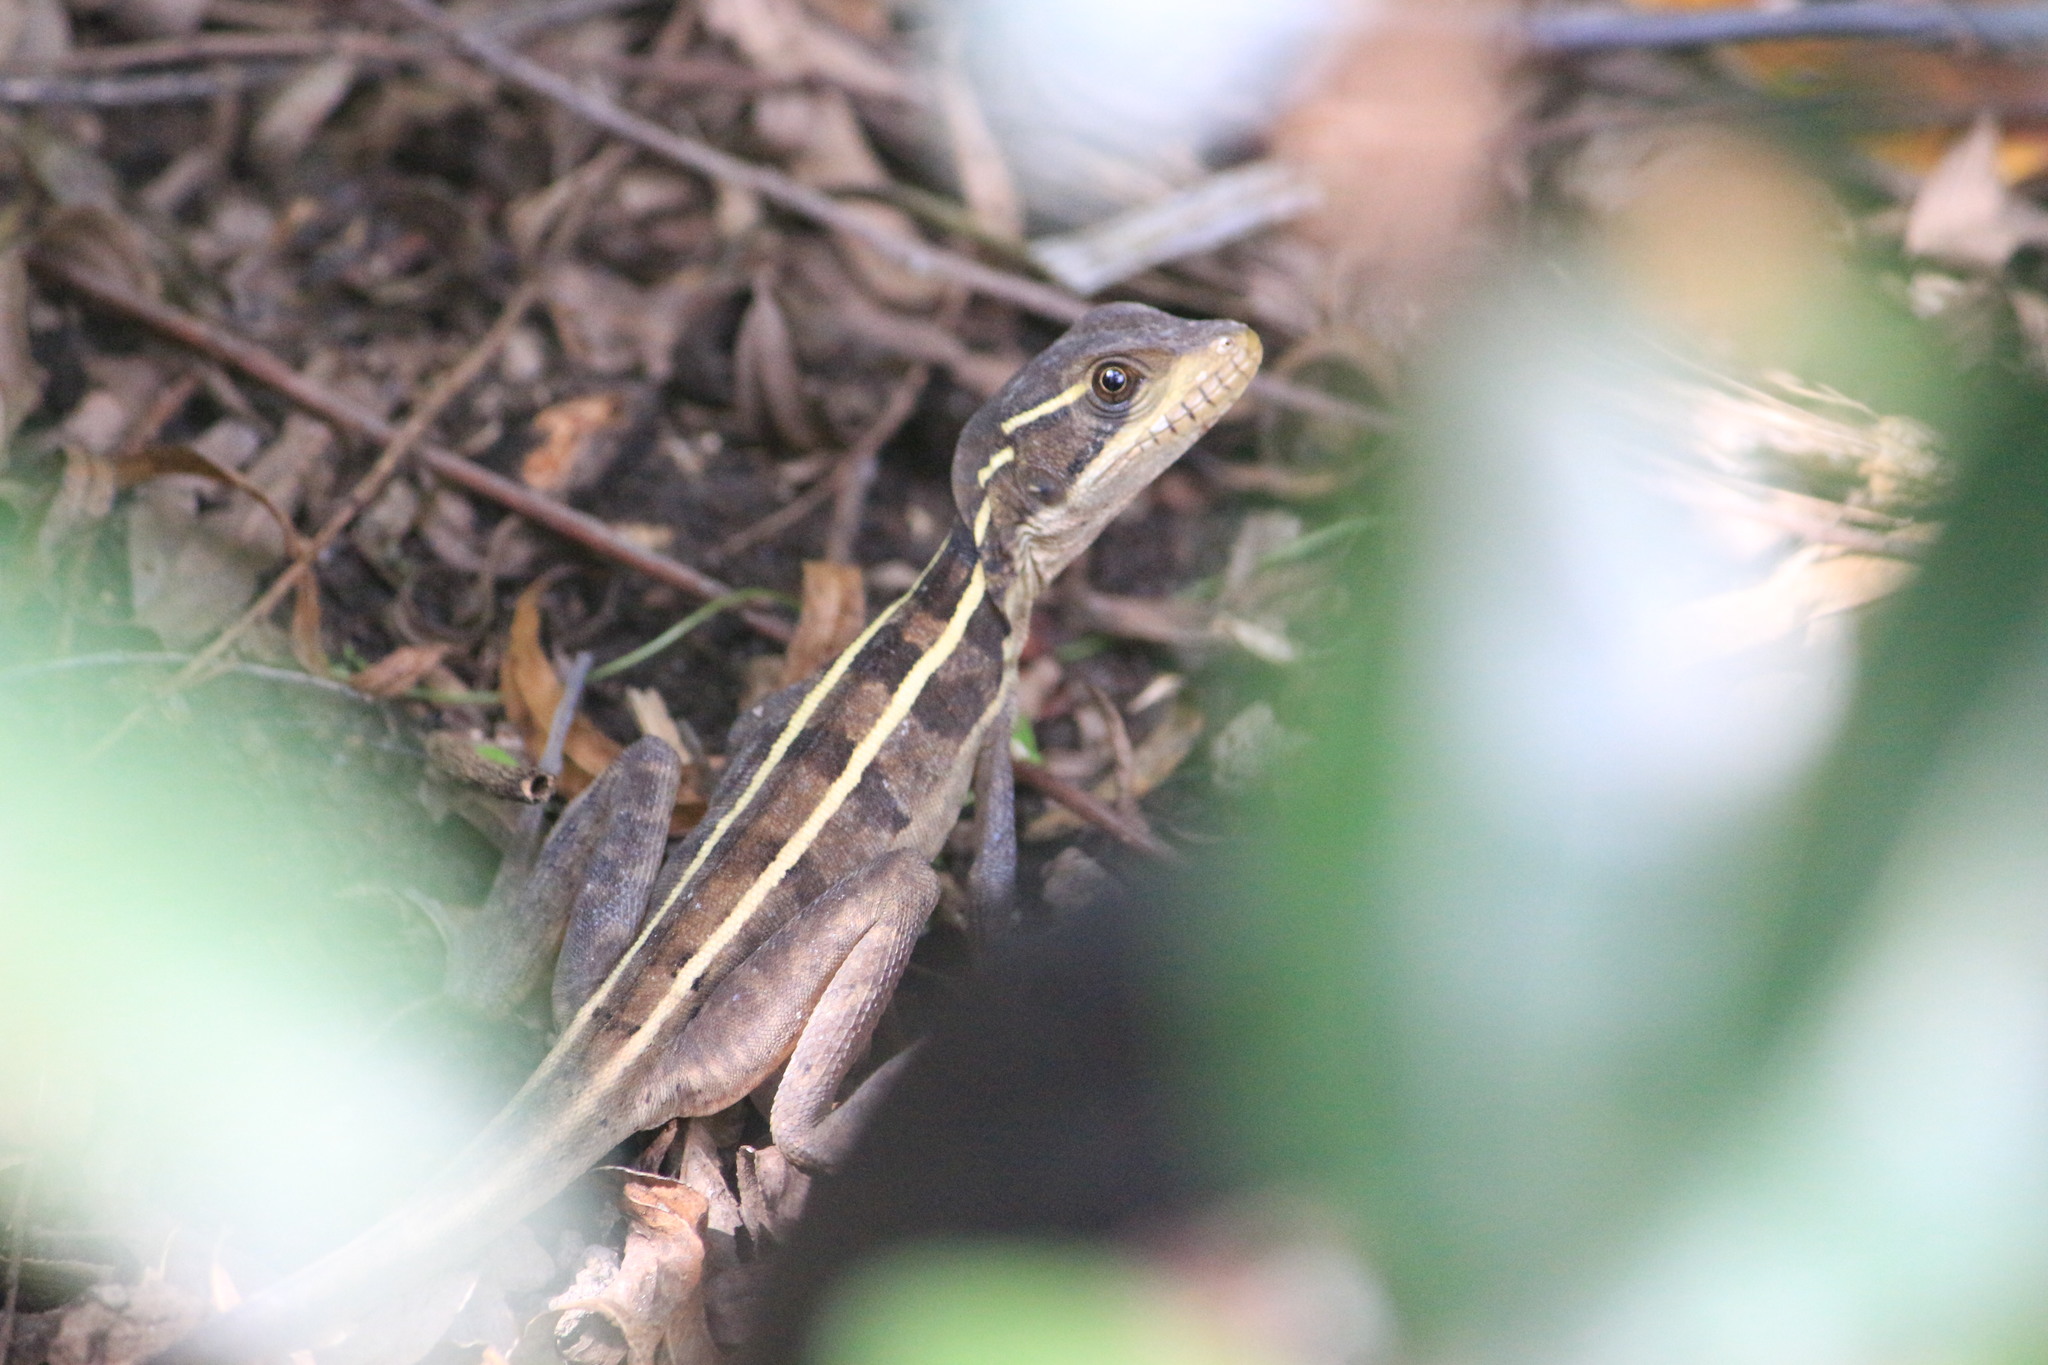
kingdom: Animalia
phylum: Chordata
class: Squamata
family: Corytophanidae
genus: Basiliscus
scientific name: Basiliscus vittatus
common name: Brown basilisk
